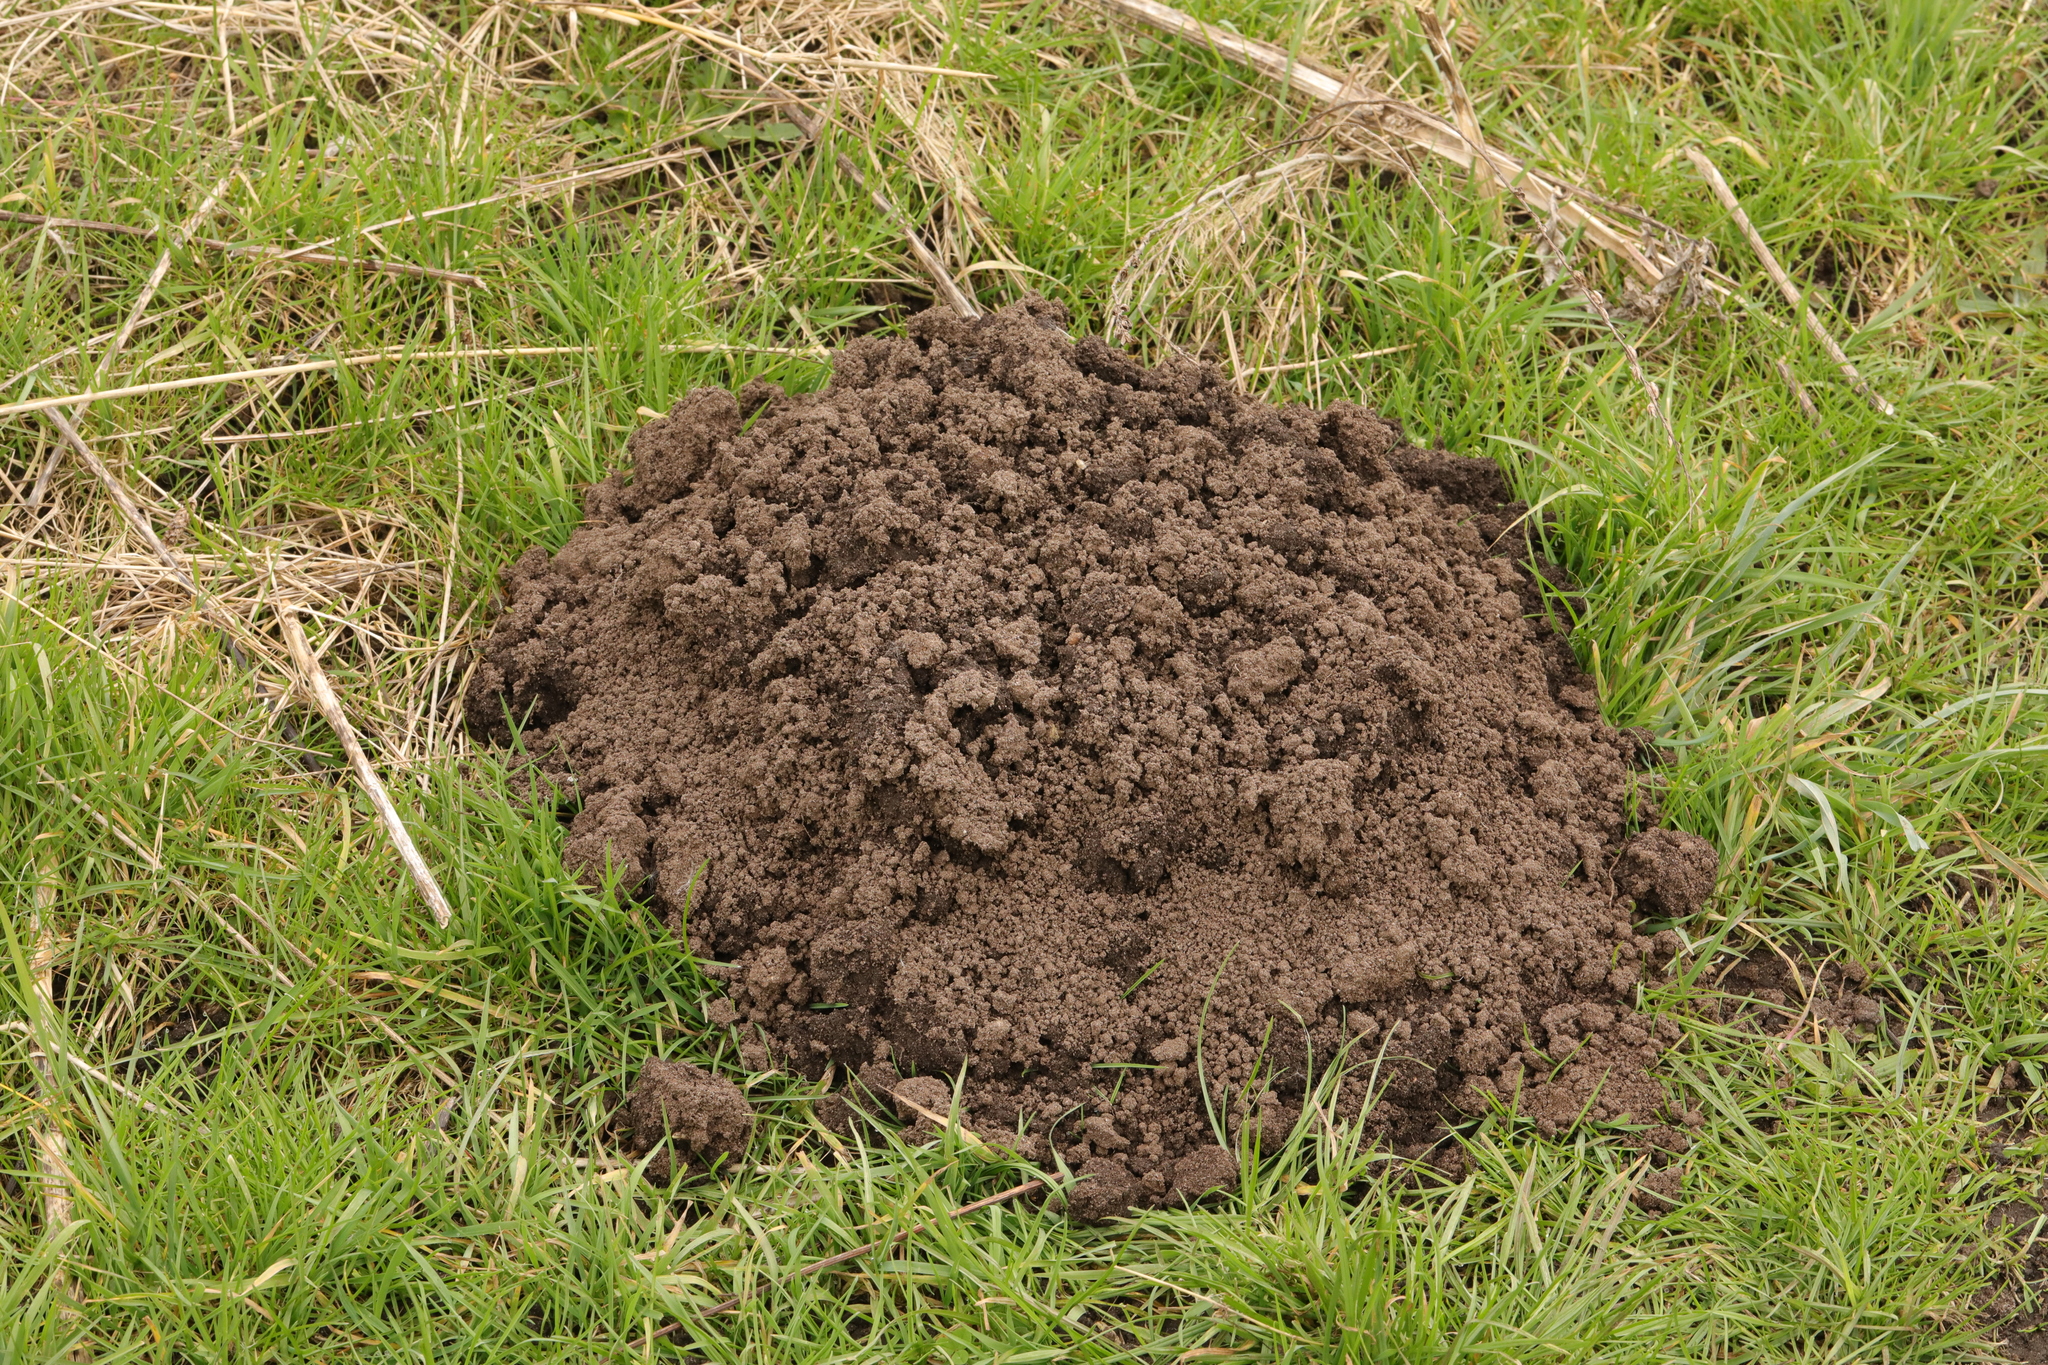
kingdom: Animalia
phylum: Chordata
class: Mammalia
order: Soricomorpha
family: Talpidae
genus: Talpa
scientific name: Talpa europaea
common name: European mole
